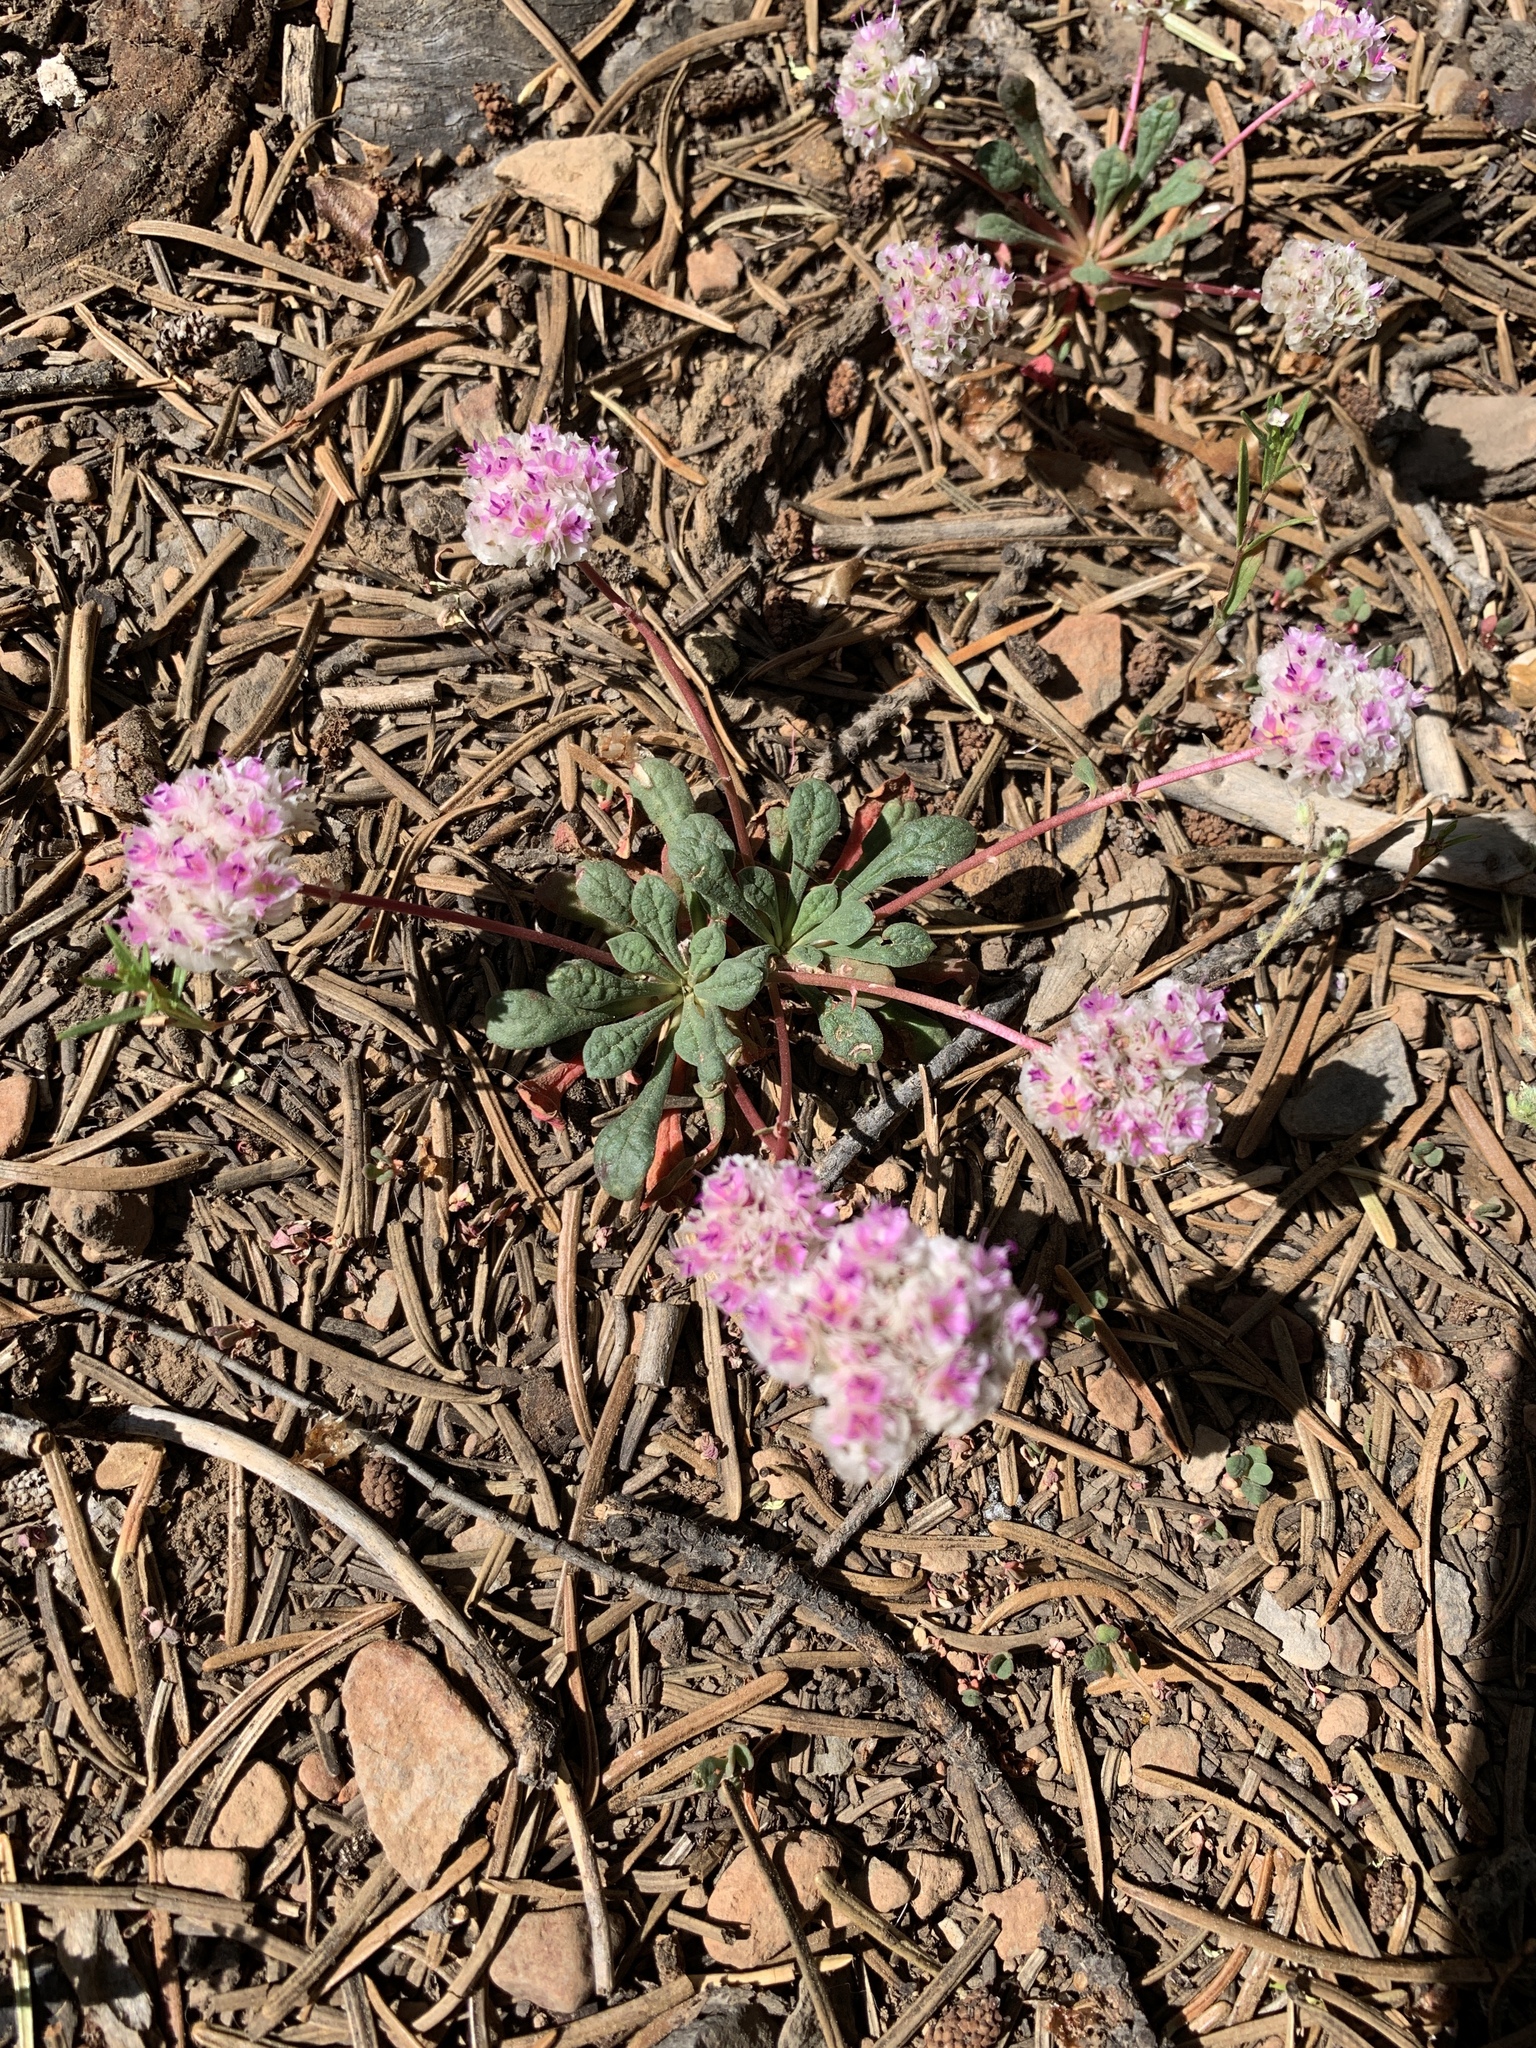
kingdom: Plantae
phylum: Tracheophyta
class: Magnoliopsida
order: Caryophyllales
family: Montiaceae
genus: Calyptridium
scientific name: Calyptridium monospermum
